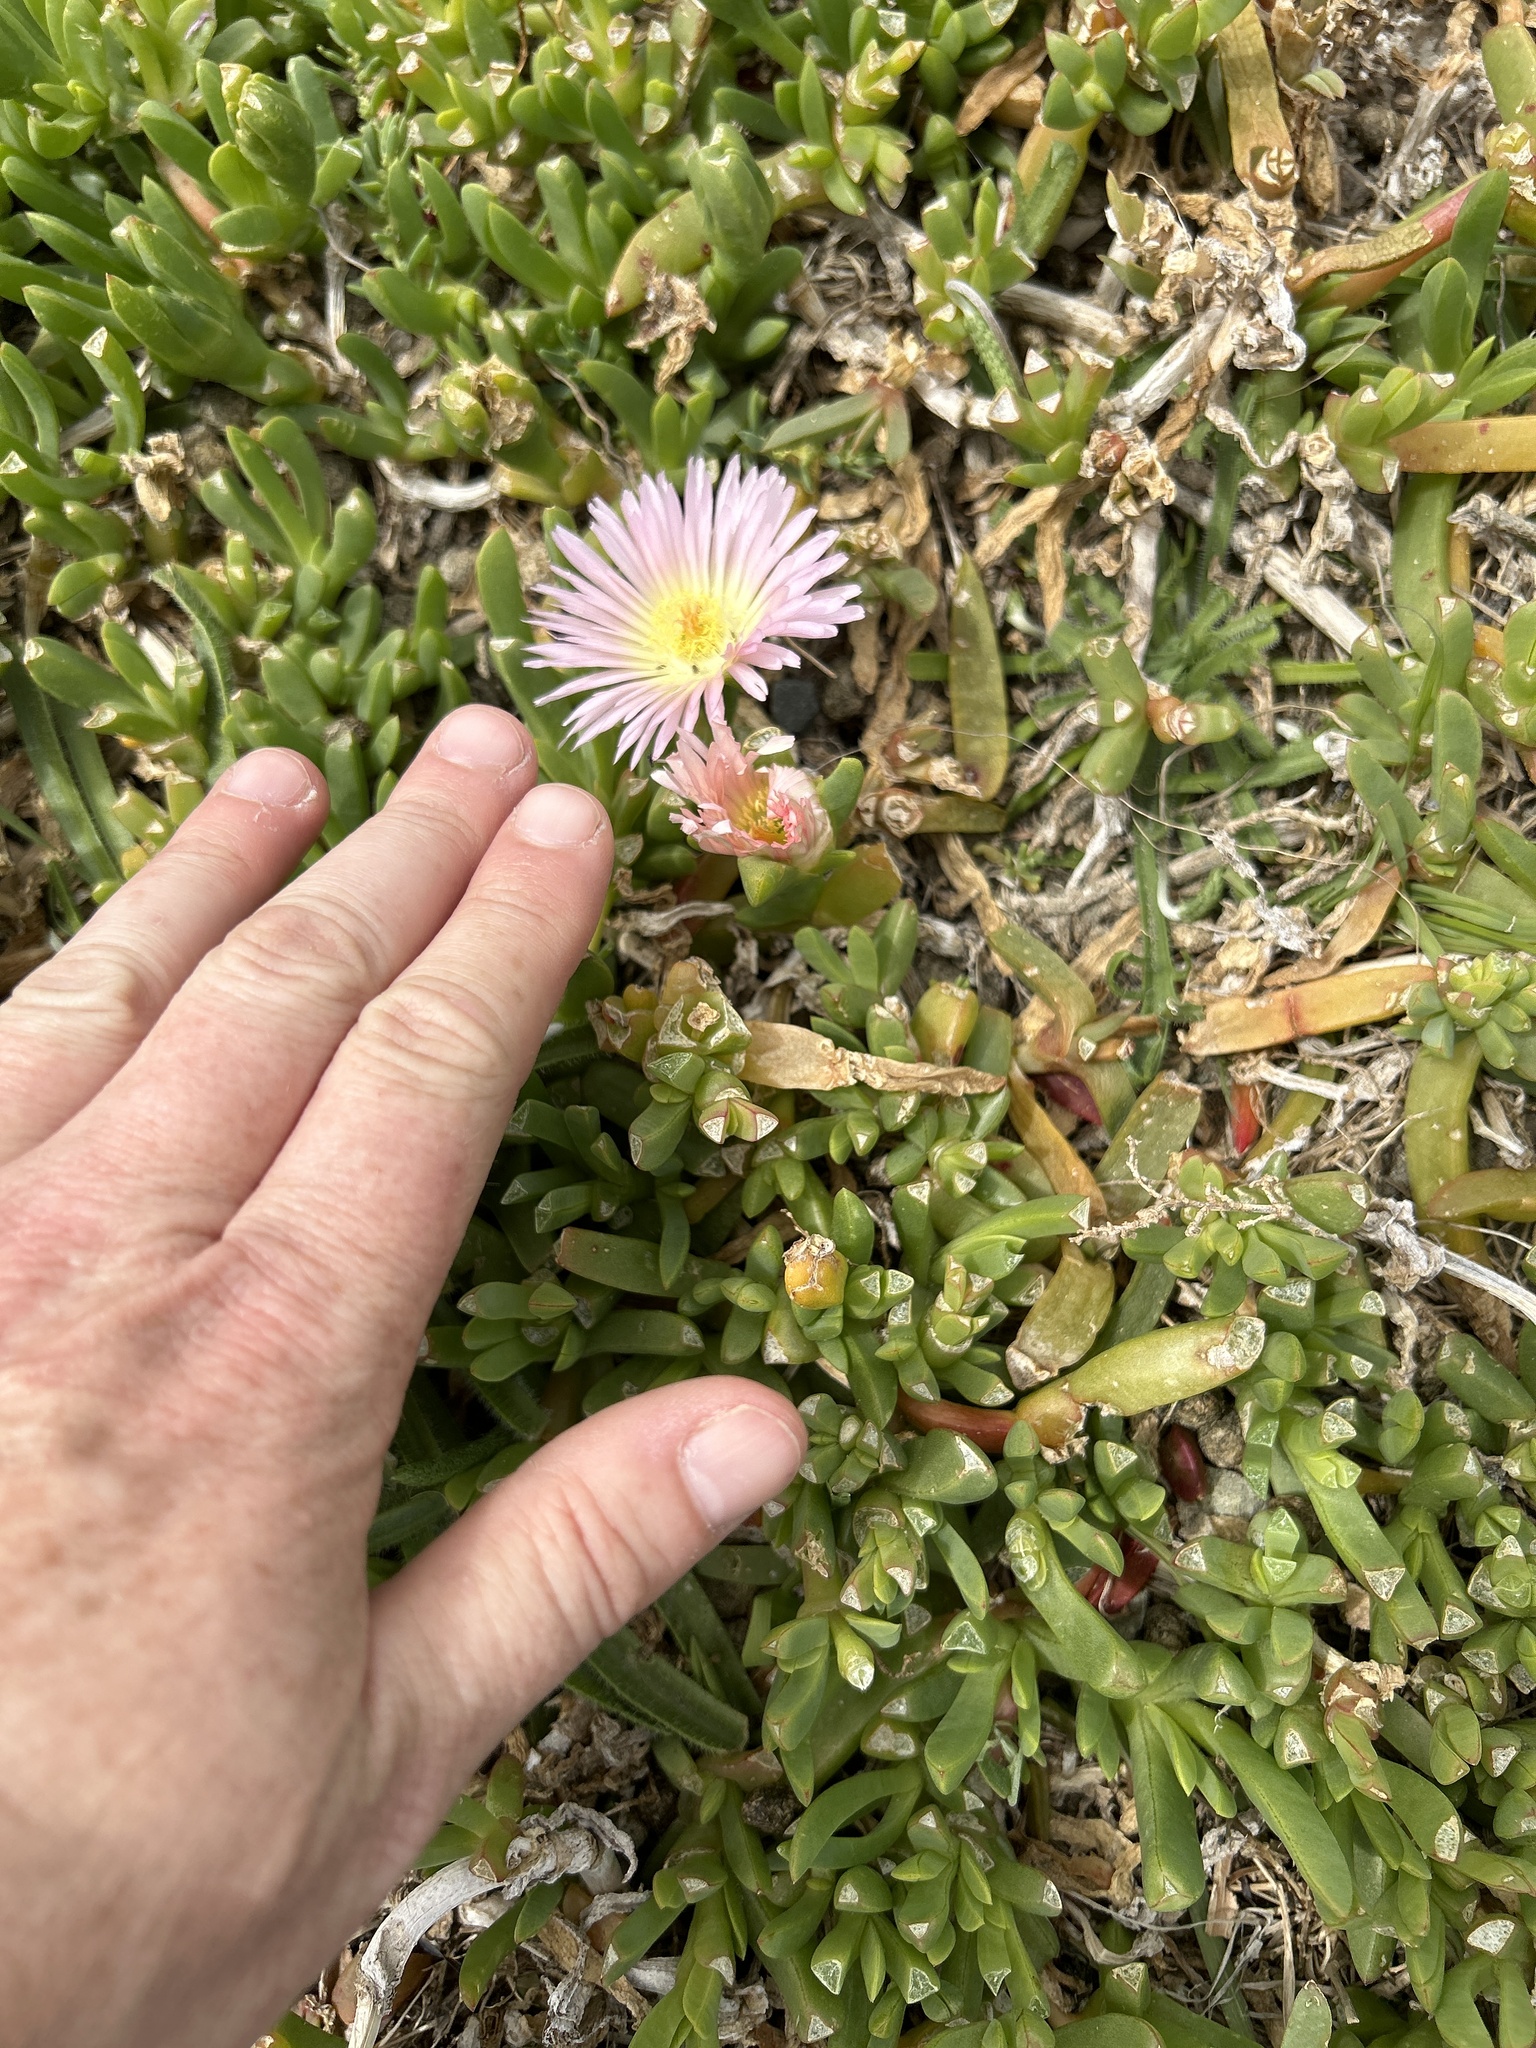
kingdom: Plantae
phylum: Tracheophyta
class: Magnoliopsida
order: Caryophyllales
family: Aizoaceae
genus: Disphyma
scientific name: Disphyma australe
